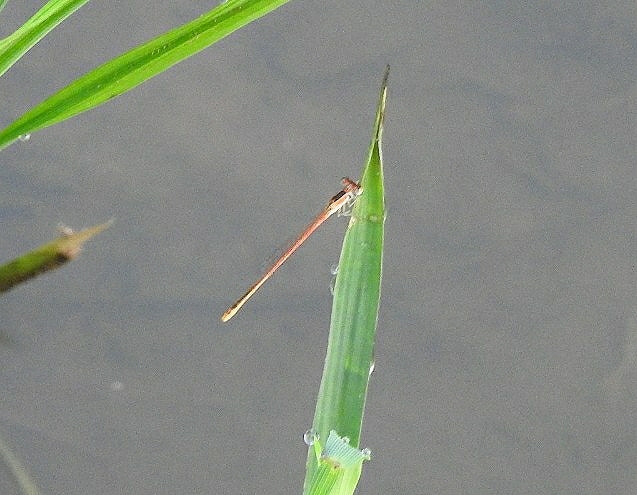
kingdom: Animalia
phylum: Arthropoda
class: Insecta
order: Odonata
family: Coenagrionidae
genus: Agriocnemis
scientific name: Agriocnemis pygmaea
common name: Pygmy wisp
